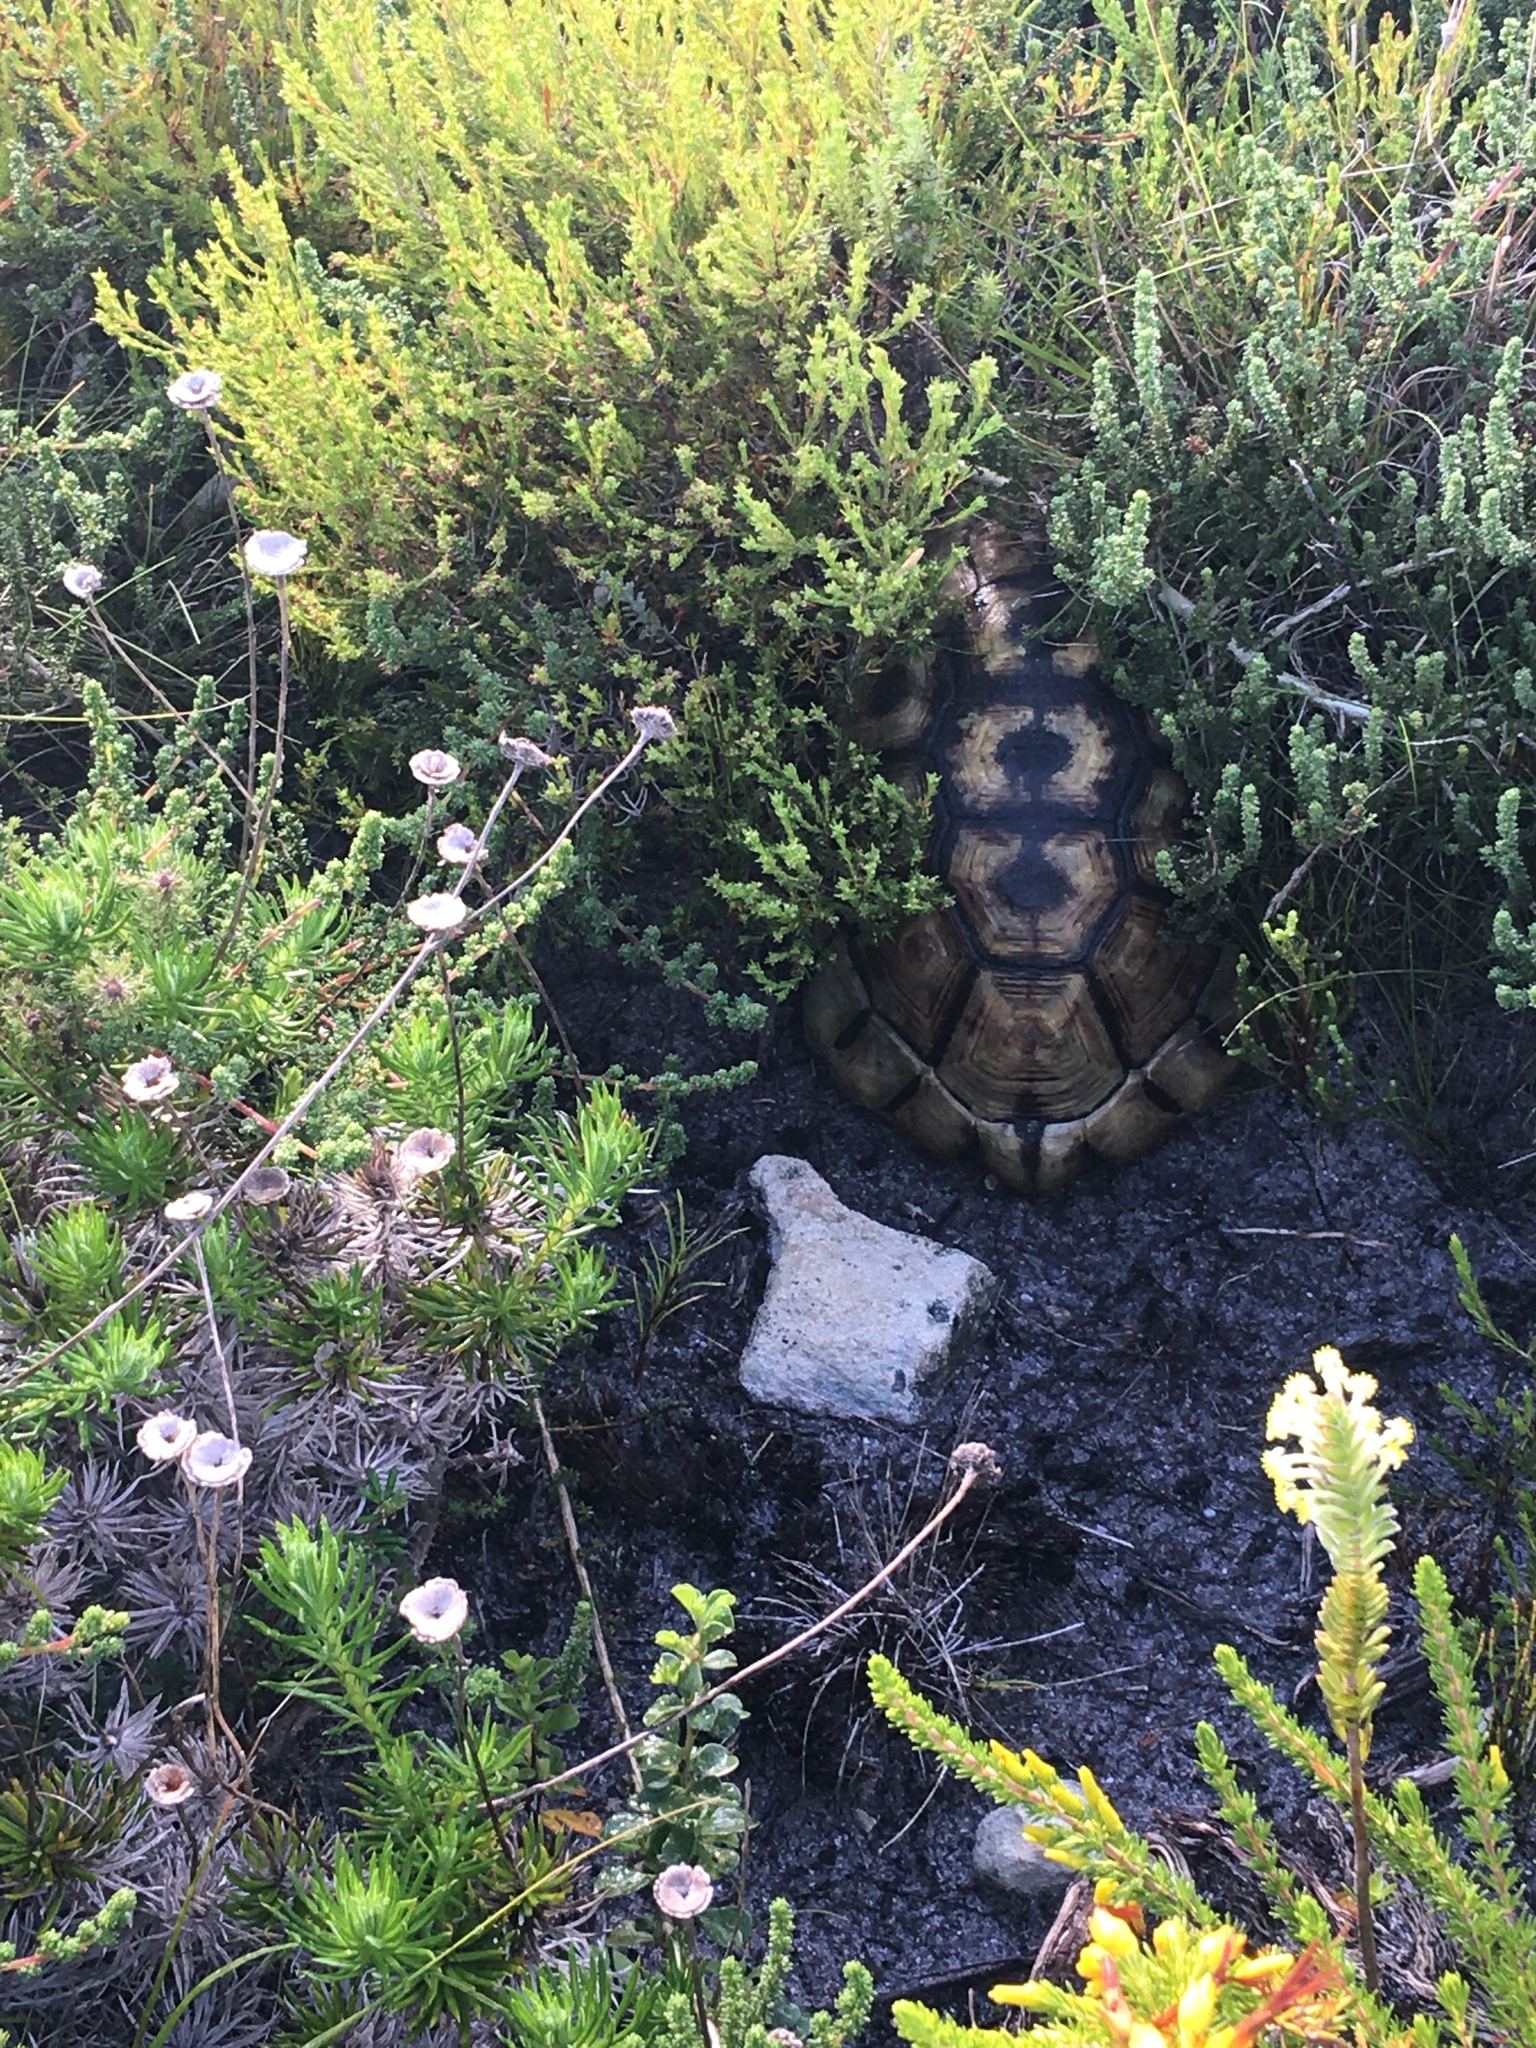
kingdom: Animalia
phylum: Chordata
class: Testudines
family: Testudinidae
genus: Chersina
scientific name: Chersina angulata
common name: South african bowsprit tortoise
